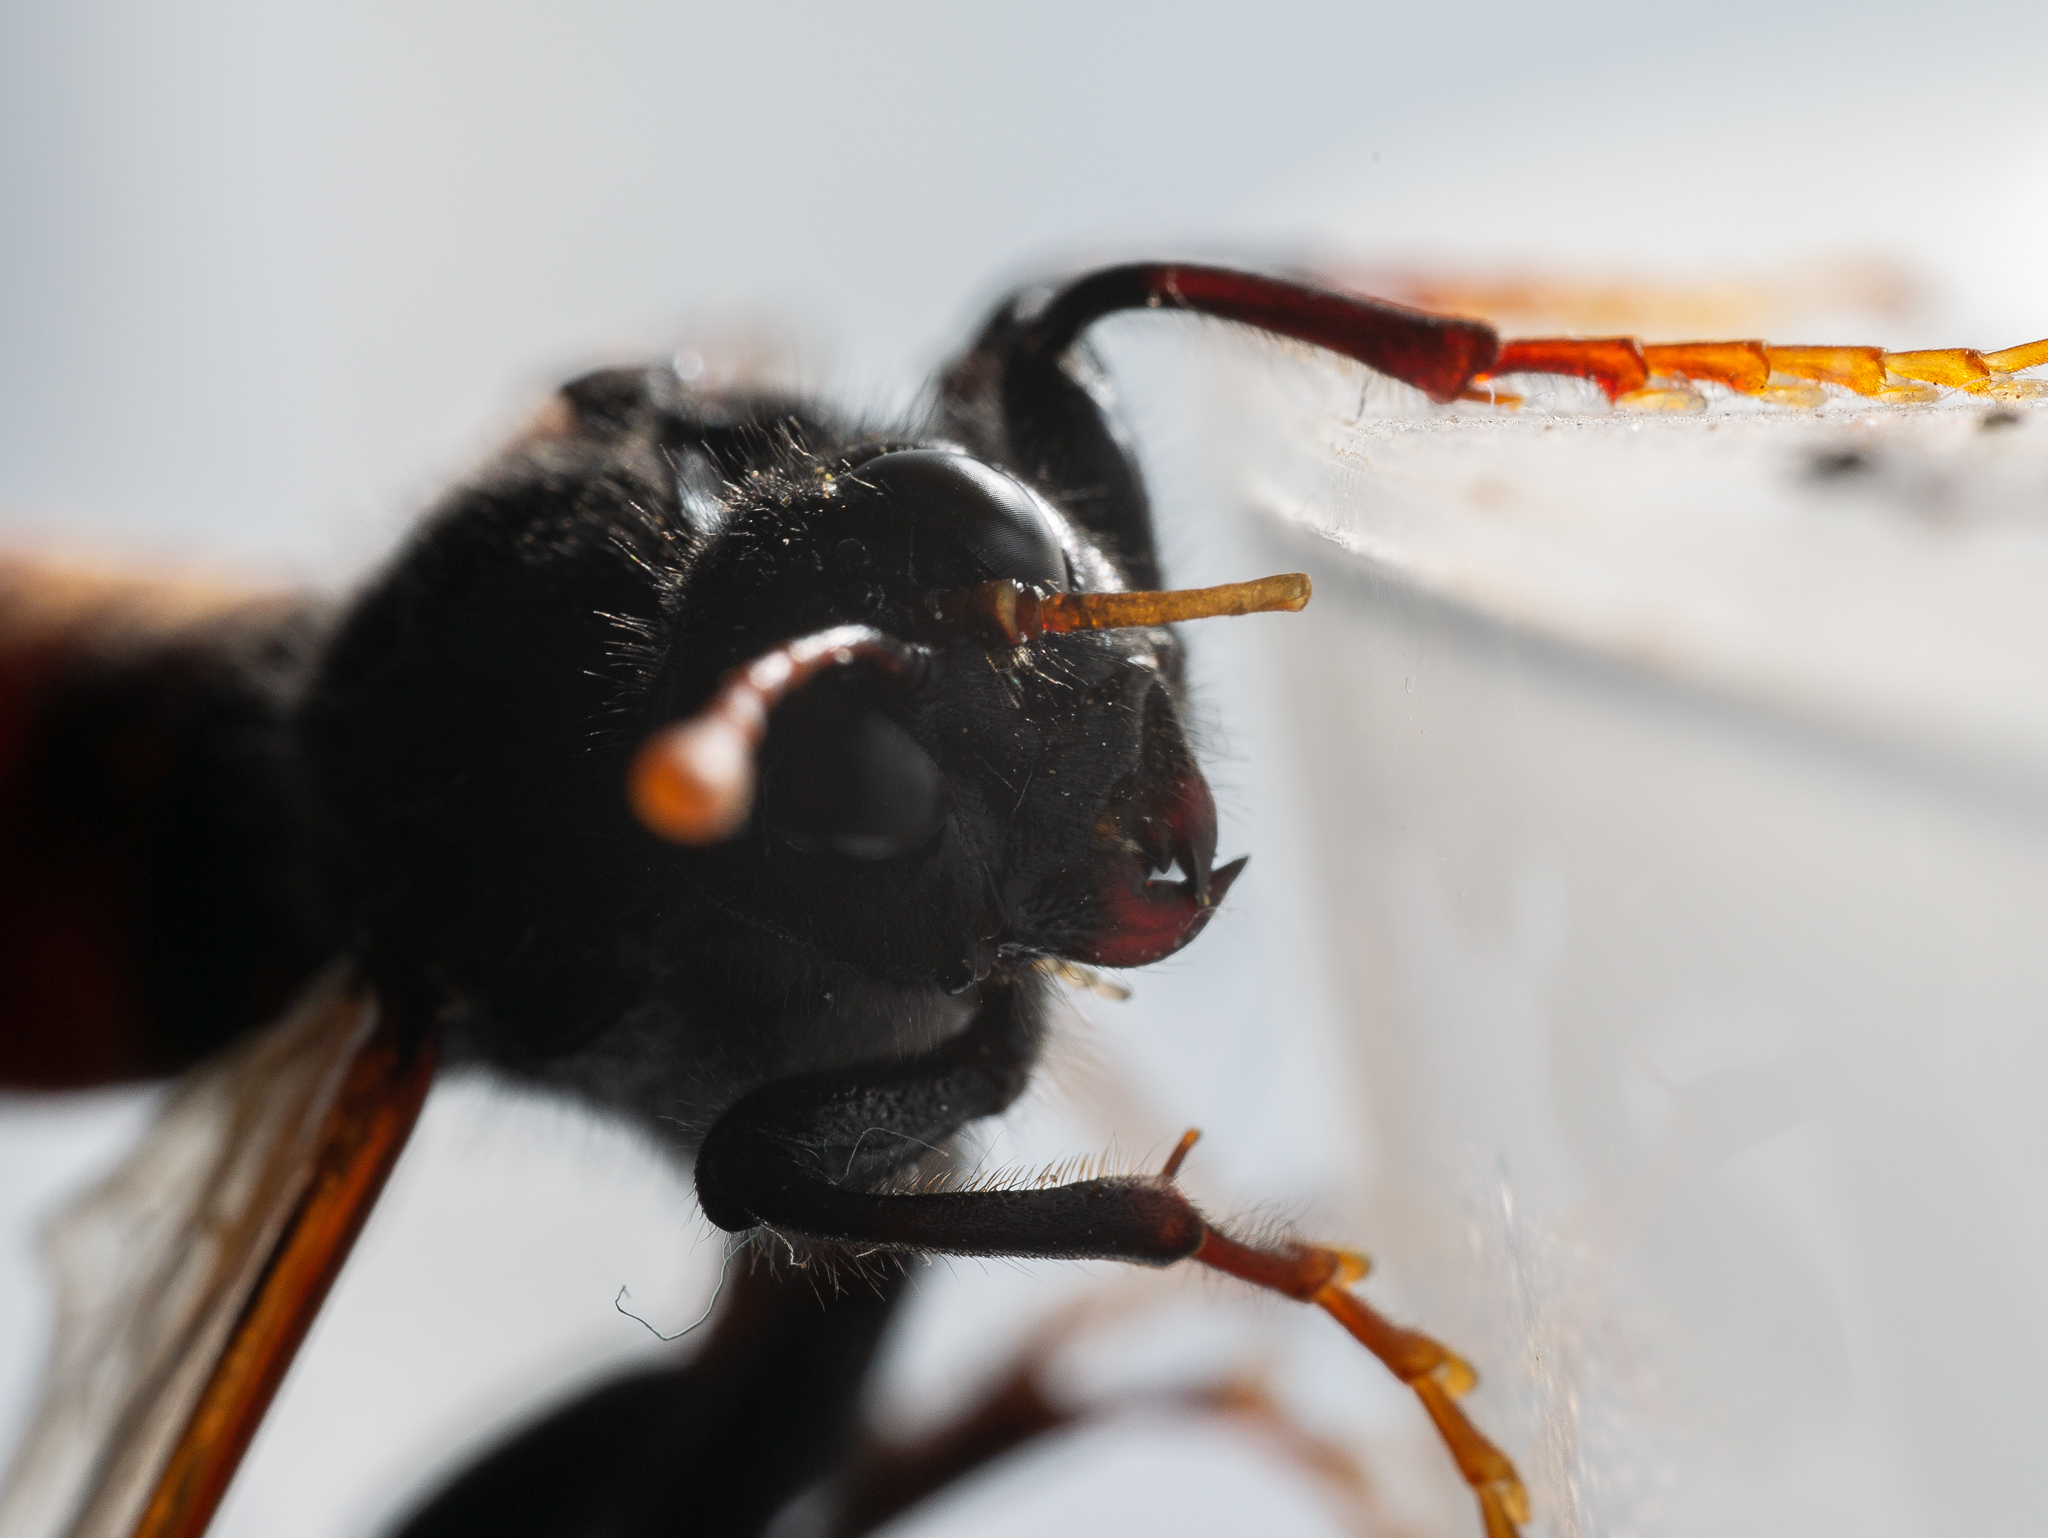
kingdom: Animalia
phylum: Arthropoda
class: Insecta
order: Hymenoptera
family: Cimbicidae
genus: Cimbex
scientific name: Cimbex femoratus
